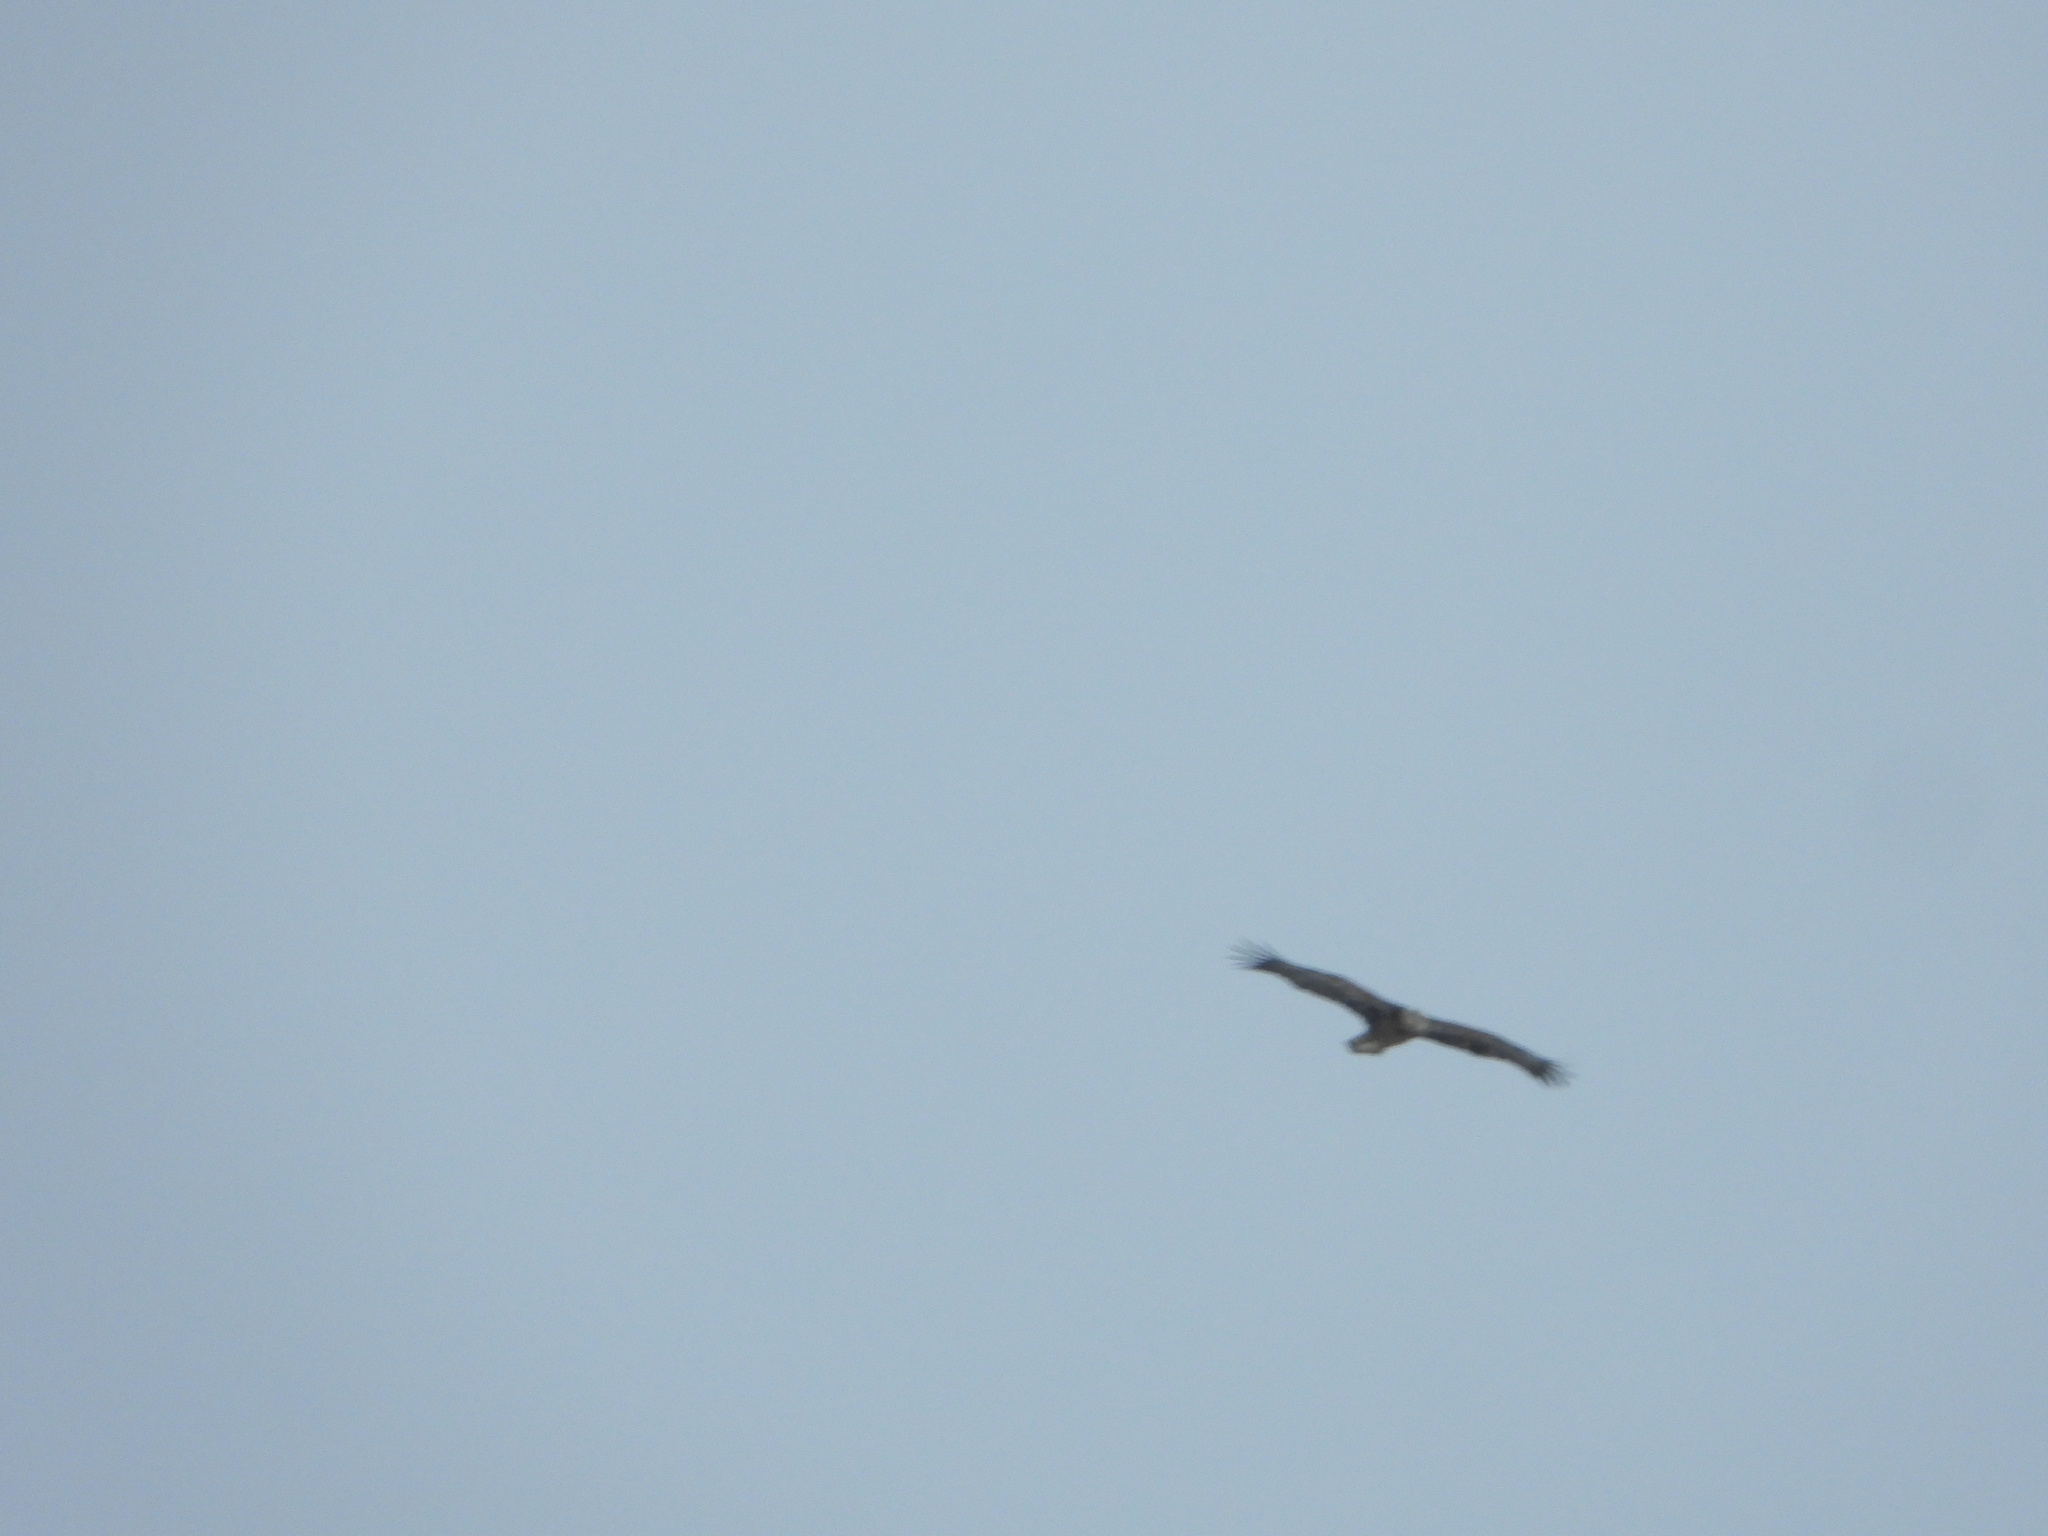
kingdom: Animalia
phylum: Chordata
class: Aves
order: Accipitriformes
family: Accipitridae
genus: Haliaeetus
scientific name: Haliaeetus leucocephalus
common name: Bald eagle
